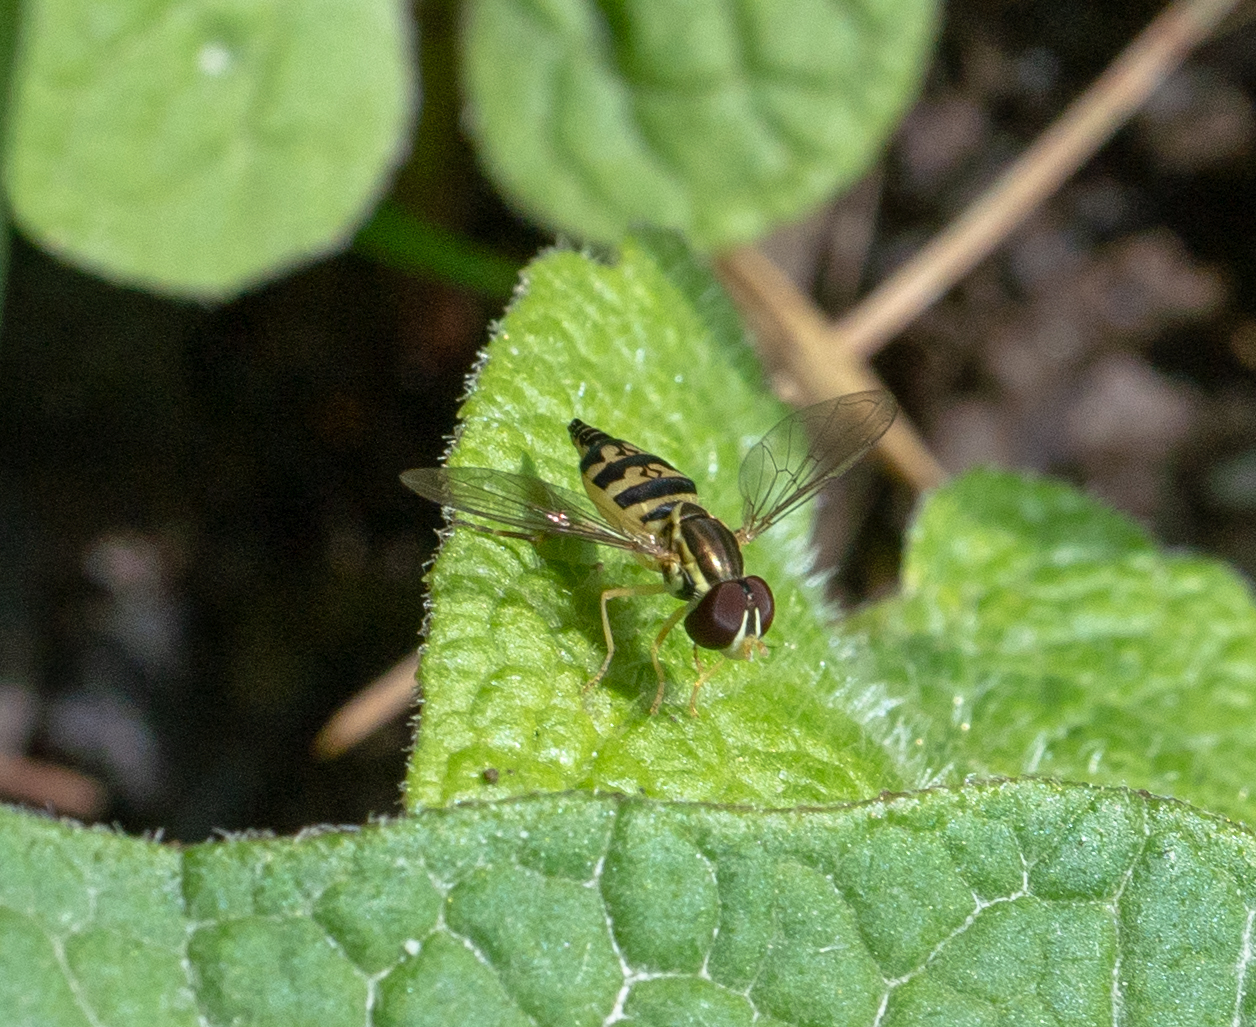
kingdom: Animalia
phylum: Arthropoda
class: Insecta
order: Diptera
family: Syrphidae
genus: Toxomerus
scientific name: Toxomerus geminatus
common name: Eastern calligrapher
